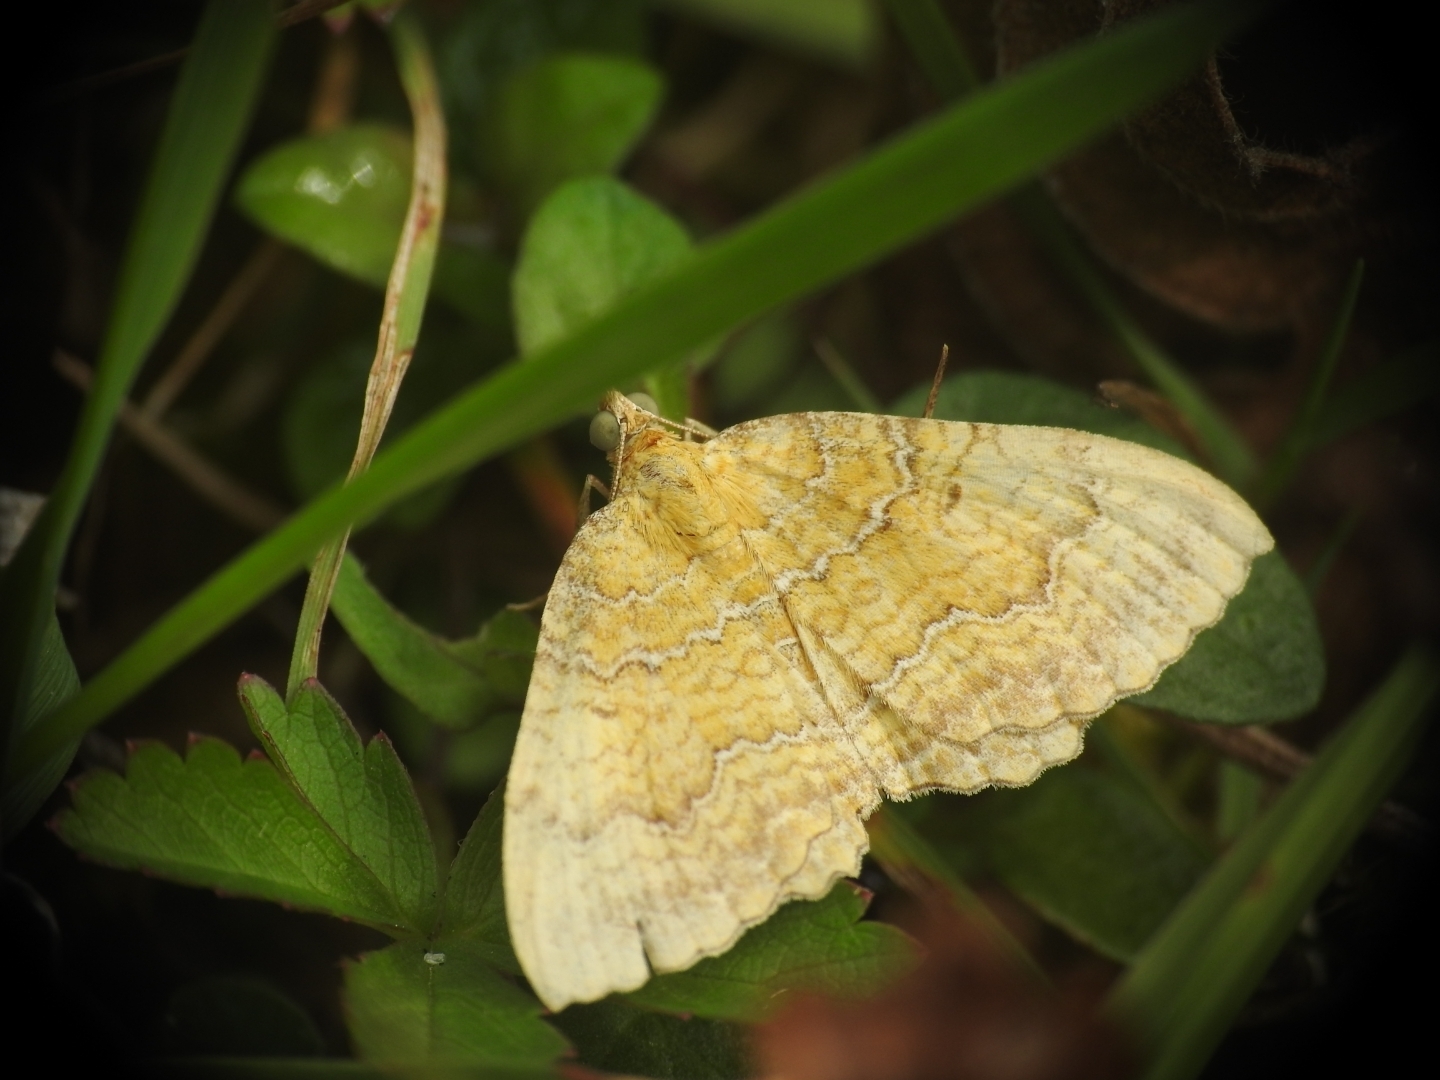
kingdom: Animalia
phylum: Arthropoda
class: Insecta
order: Lepidoptera
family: Geometridae
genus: Camptogramma
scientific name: Camptogramma bilineata
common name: Yellow shell
